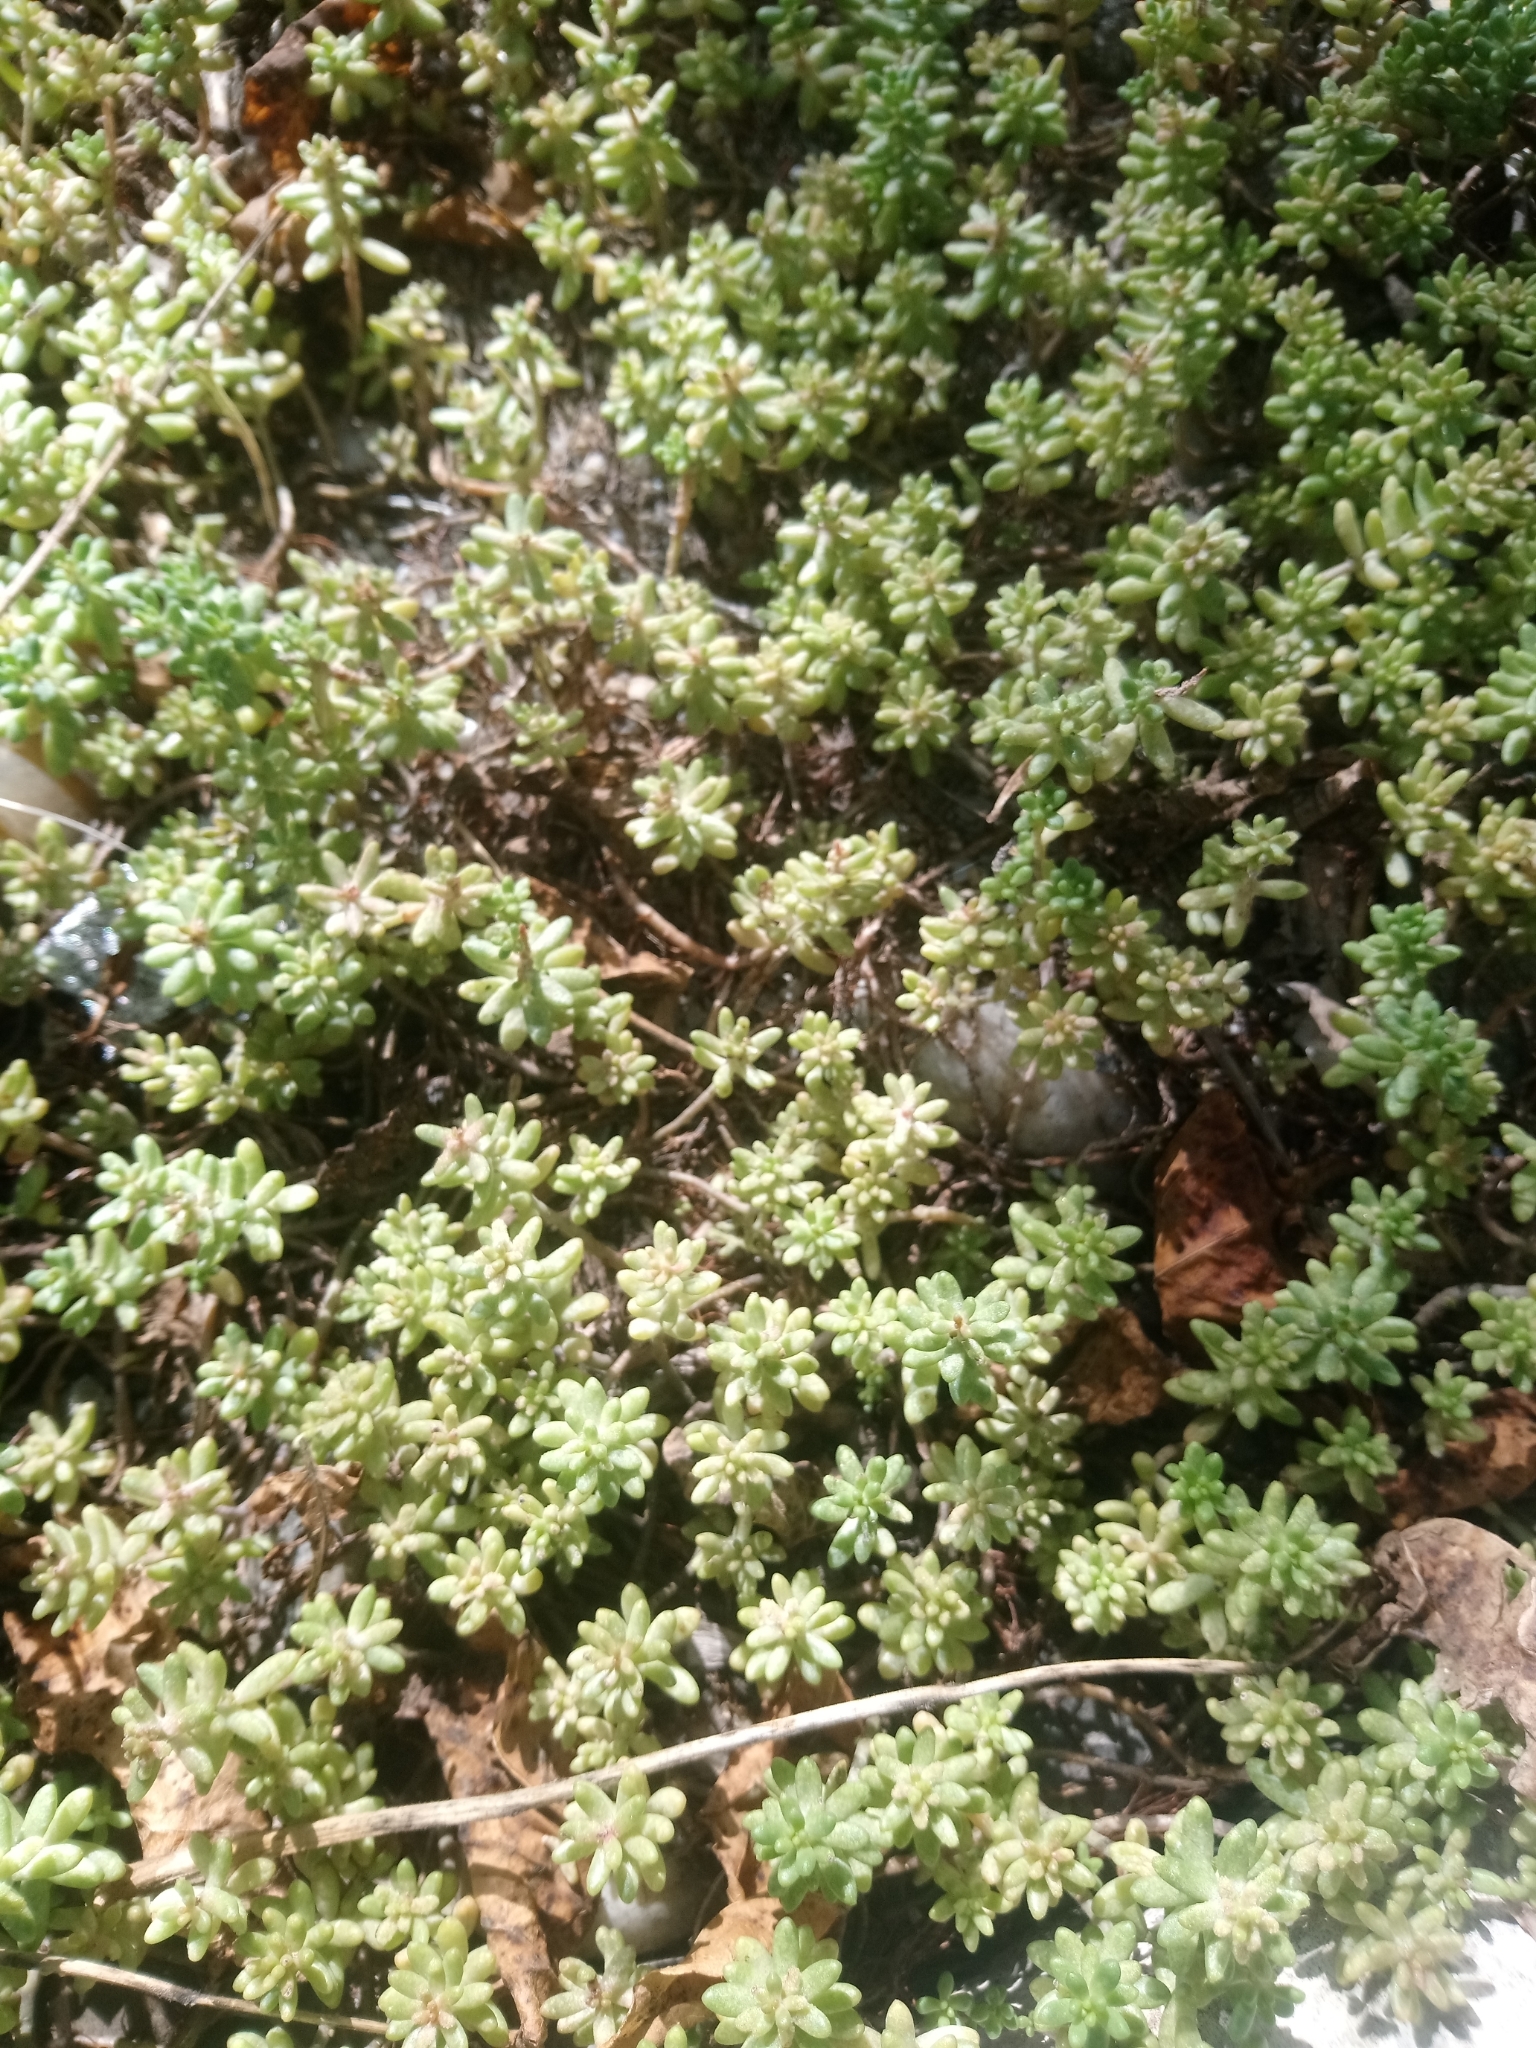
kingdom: Plantae
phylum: Tracheophyta
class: Magnoliopsida
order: Saxifragales
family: Crassulaceae
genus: Sedum
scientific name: Sedum album
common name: White stonecrop
